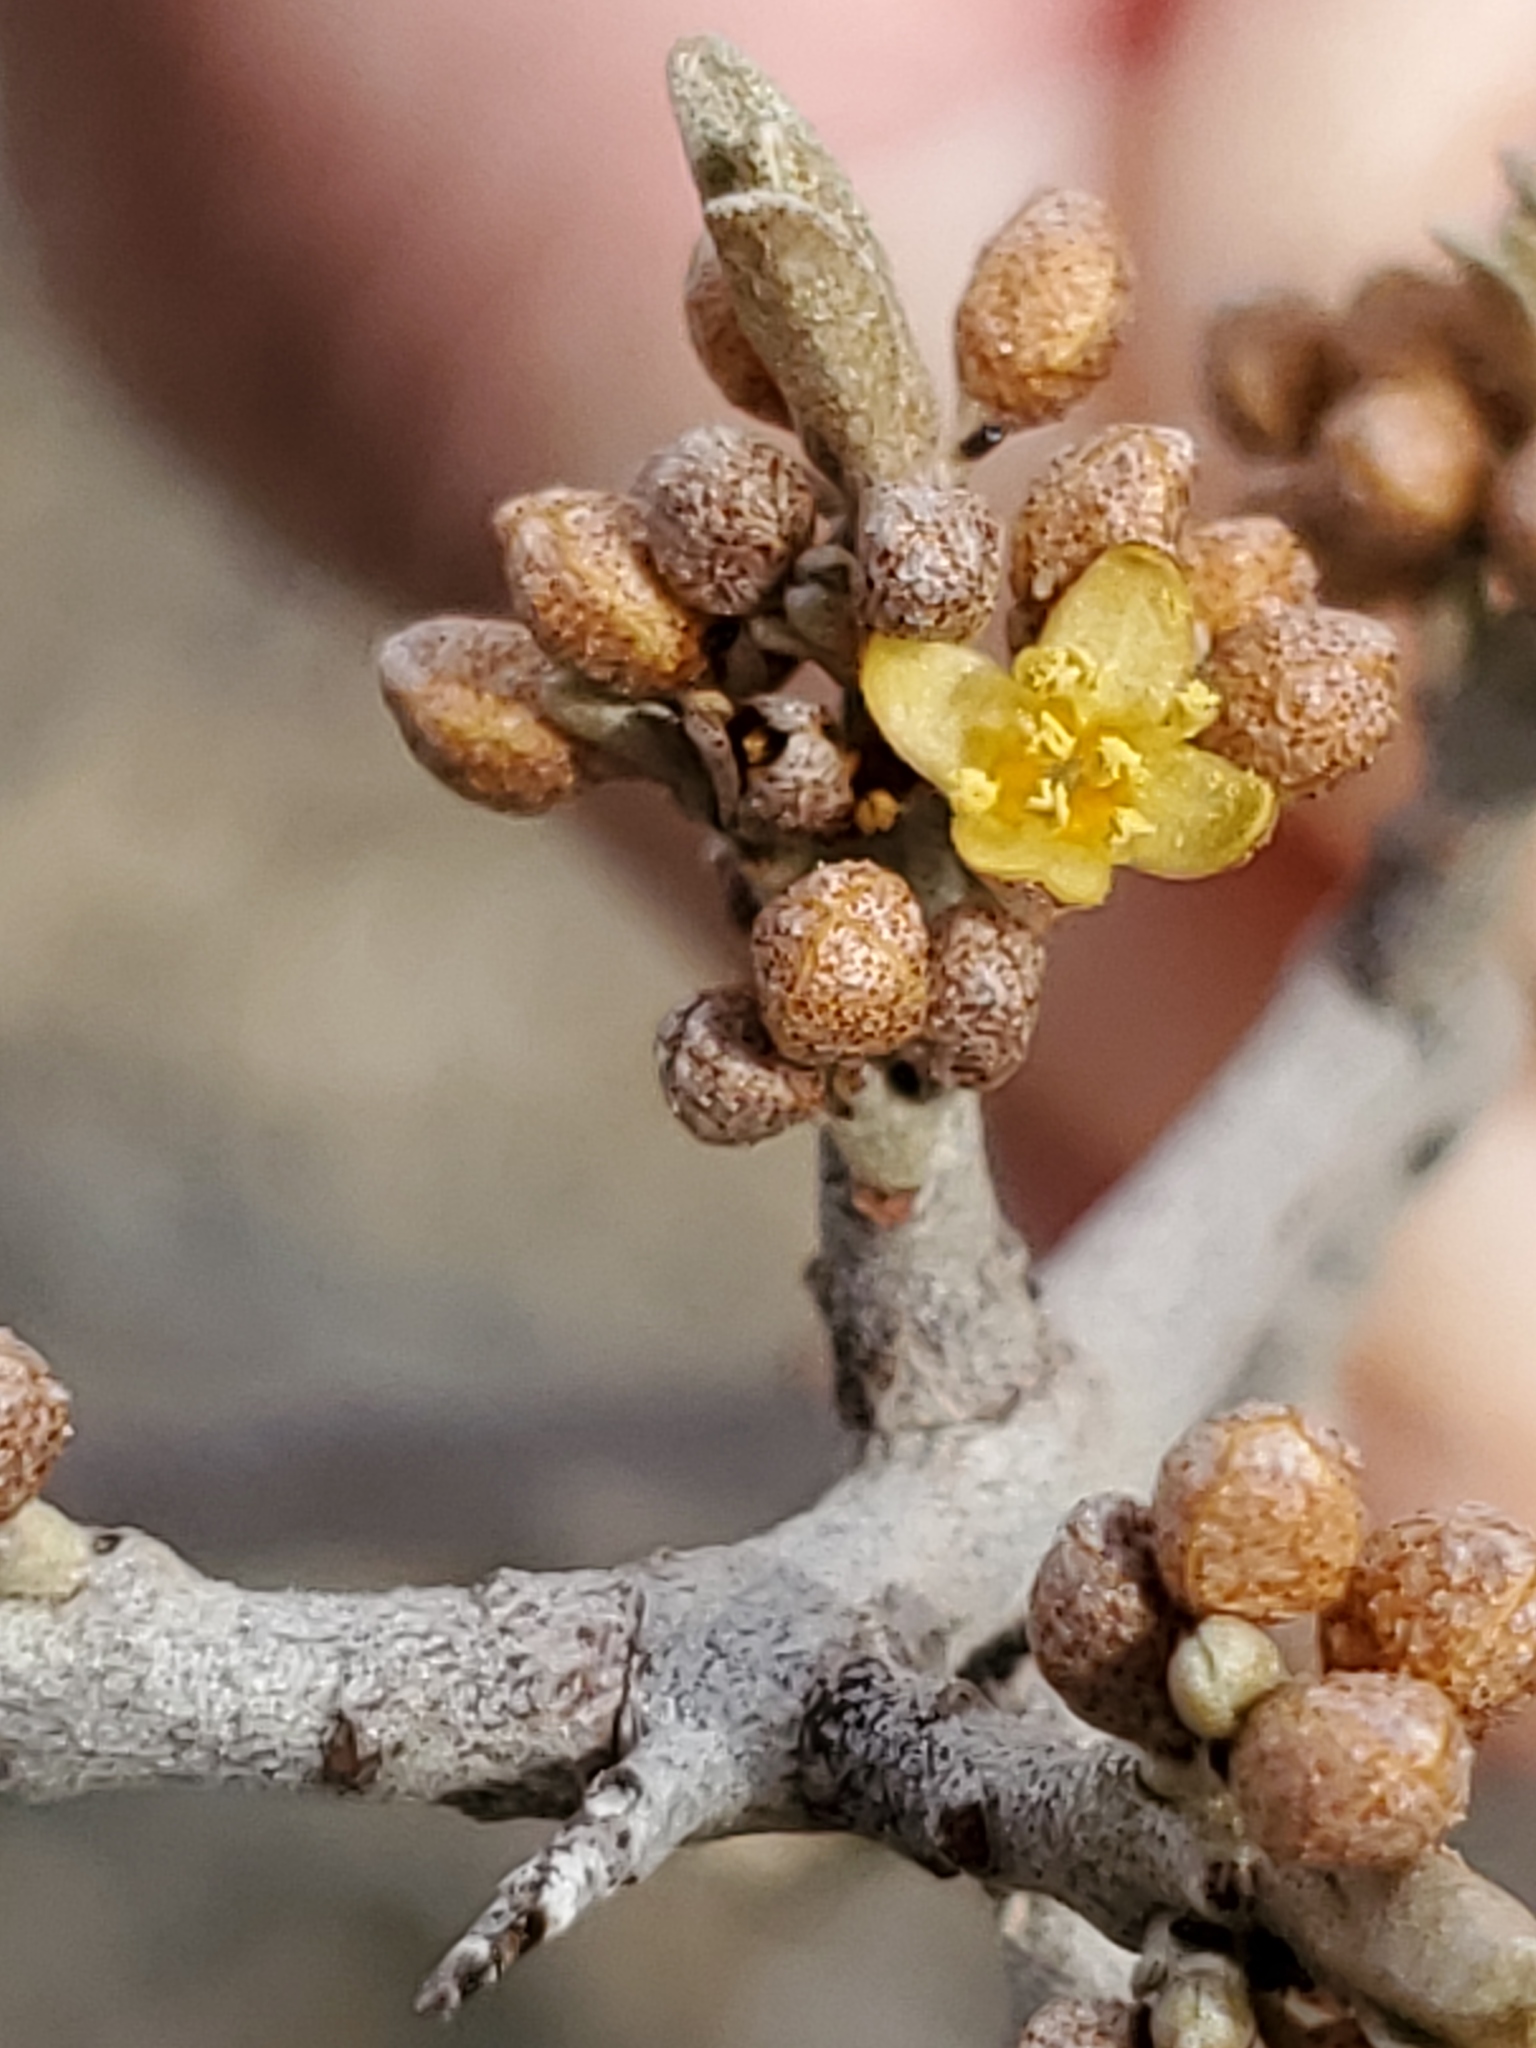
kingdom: Plantae
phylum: Tracheophyta
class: Magnoliopsida
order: Rosales
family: Elaeagnaceae
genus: Shepherdia
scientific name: Shepherdia argentea
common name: Silver buffaloberry
